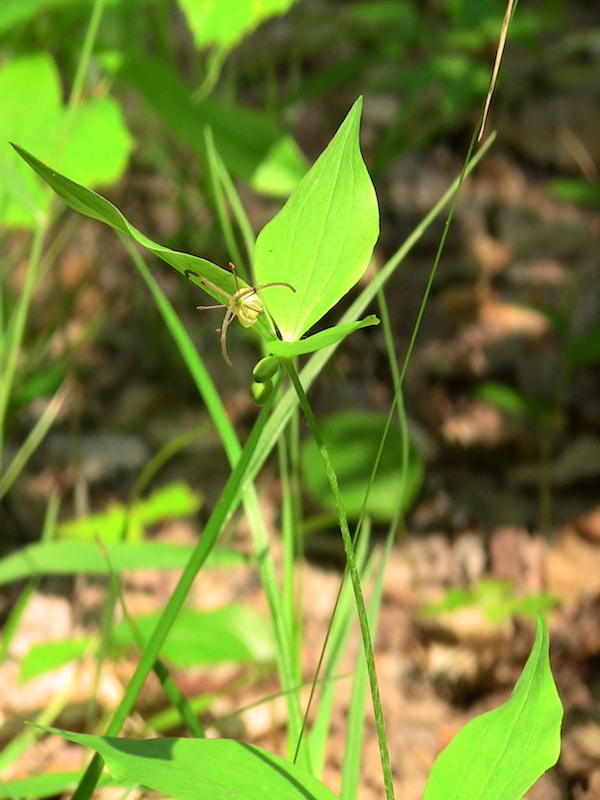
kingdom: Plantae
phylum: Tracheophyta
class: Liliopsida
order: Liliales
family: Liliaceae
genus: Medeola
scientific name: Medeola virginiana
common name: Indian cucumber-root
